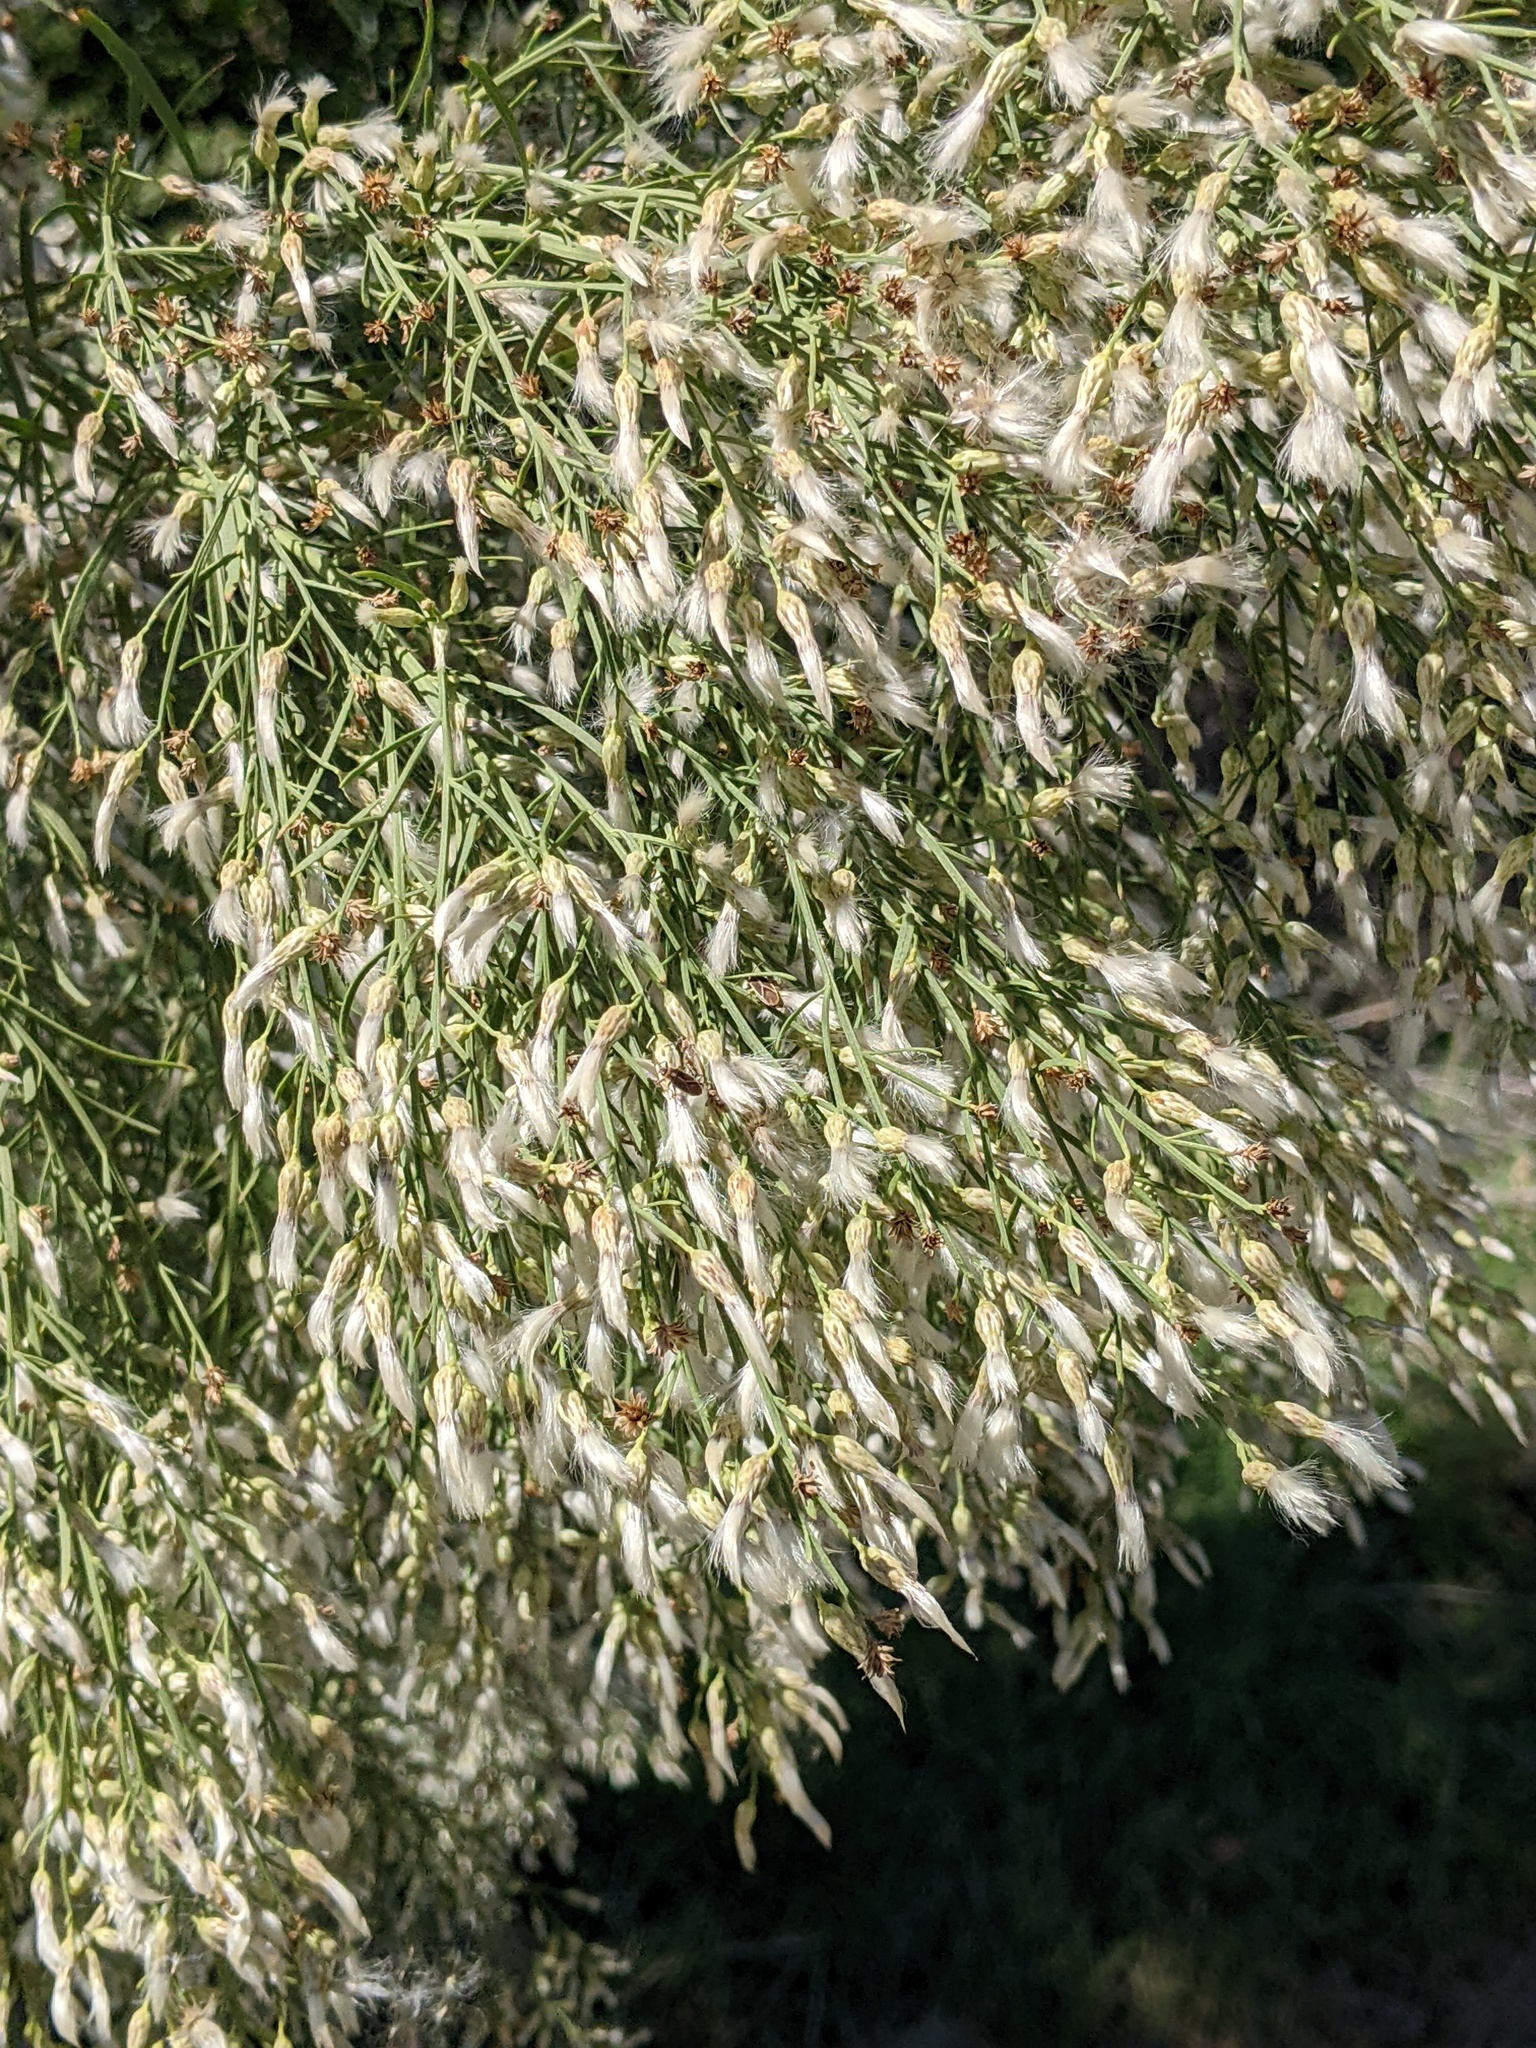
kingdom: Plantae
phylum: Tracheophyta
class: Magnoliopsida
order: Asterales
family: Asteraceae
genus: Baccharis
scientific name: Baccharis neglecta
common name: Roosevelt-weed
